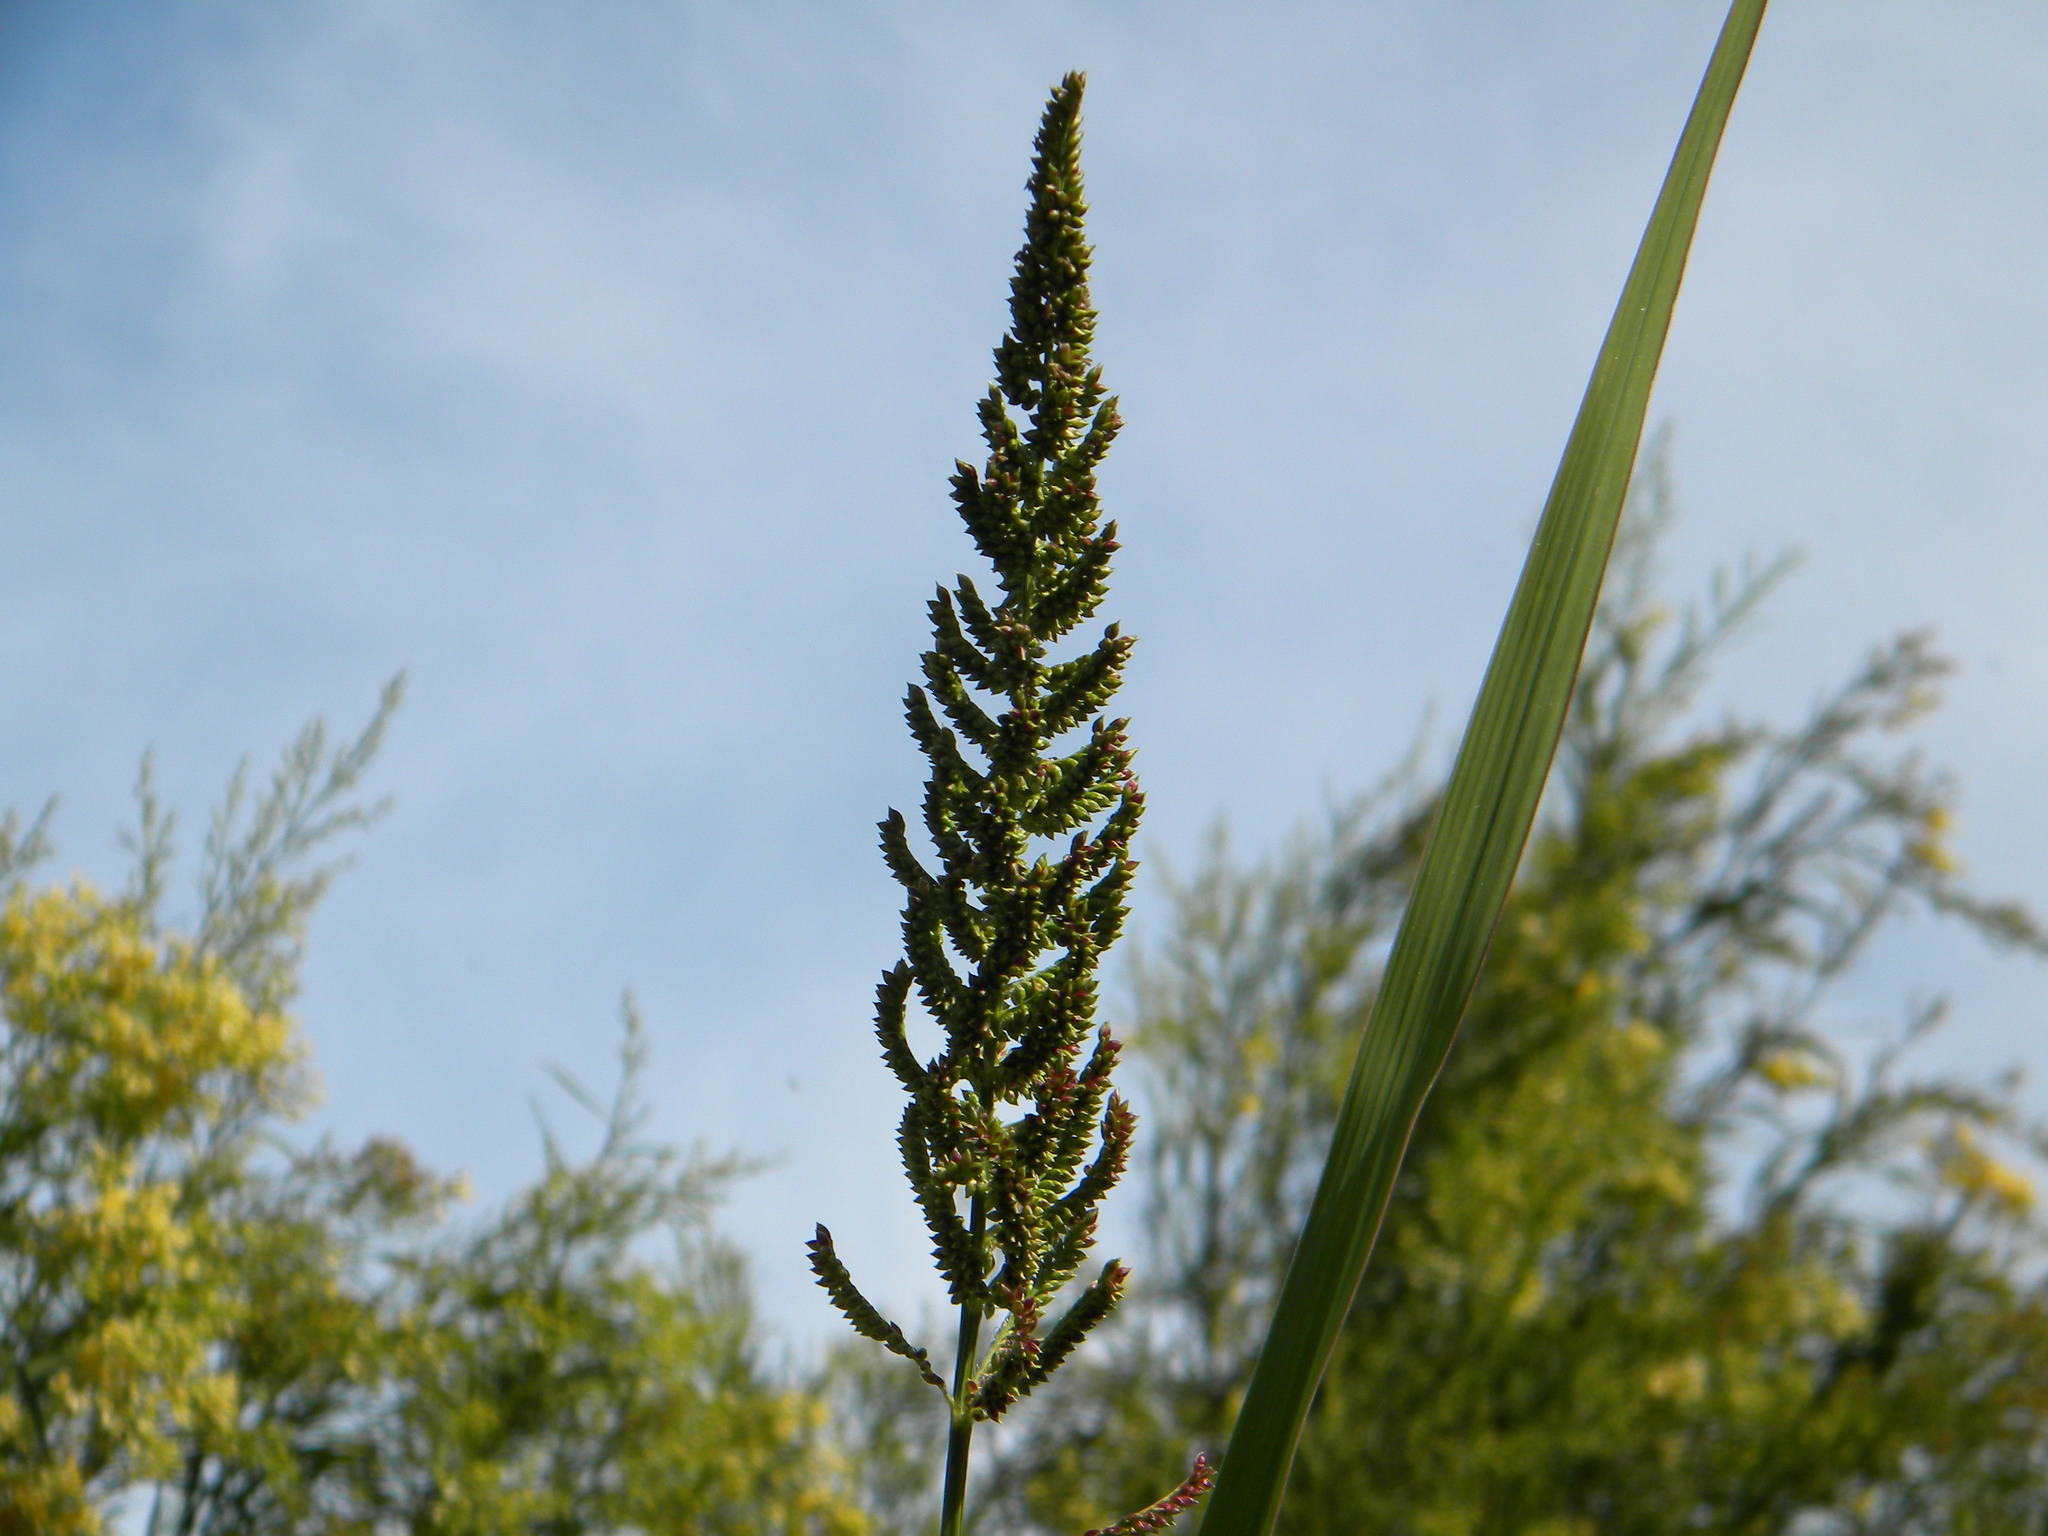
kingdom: Plantae
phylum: Tracheophyta
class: Liliopsida
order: Poales
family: Poaceae
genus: Echinochloa
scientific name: Echinochloa pyramidalis
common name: Antelope grass
